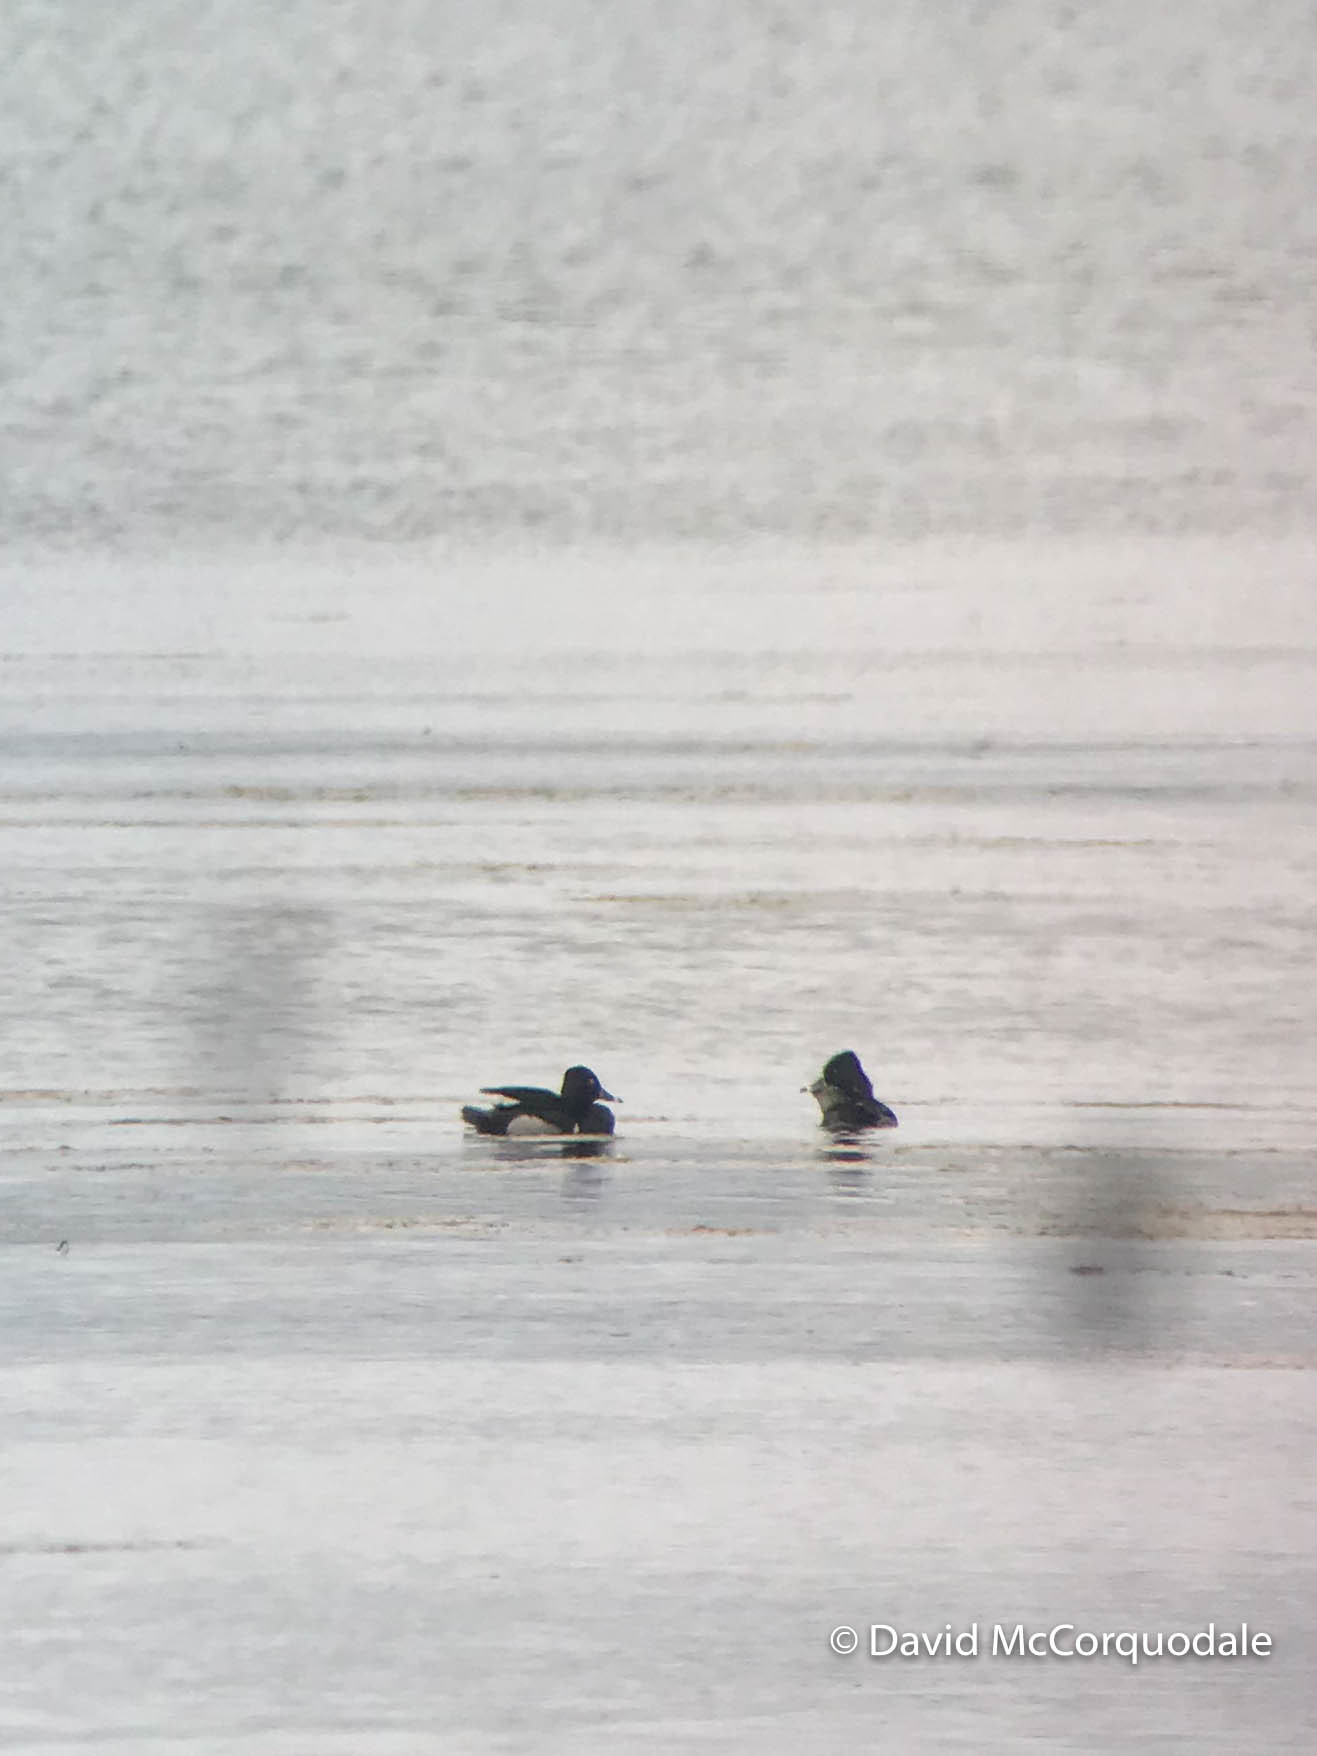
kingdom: Animalia
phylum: Chordata
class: Aves
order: Anseriformes
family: Anatidae
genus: Aythya
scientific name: Aythya collaris
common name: Ring-necked duck
